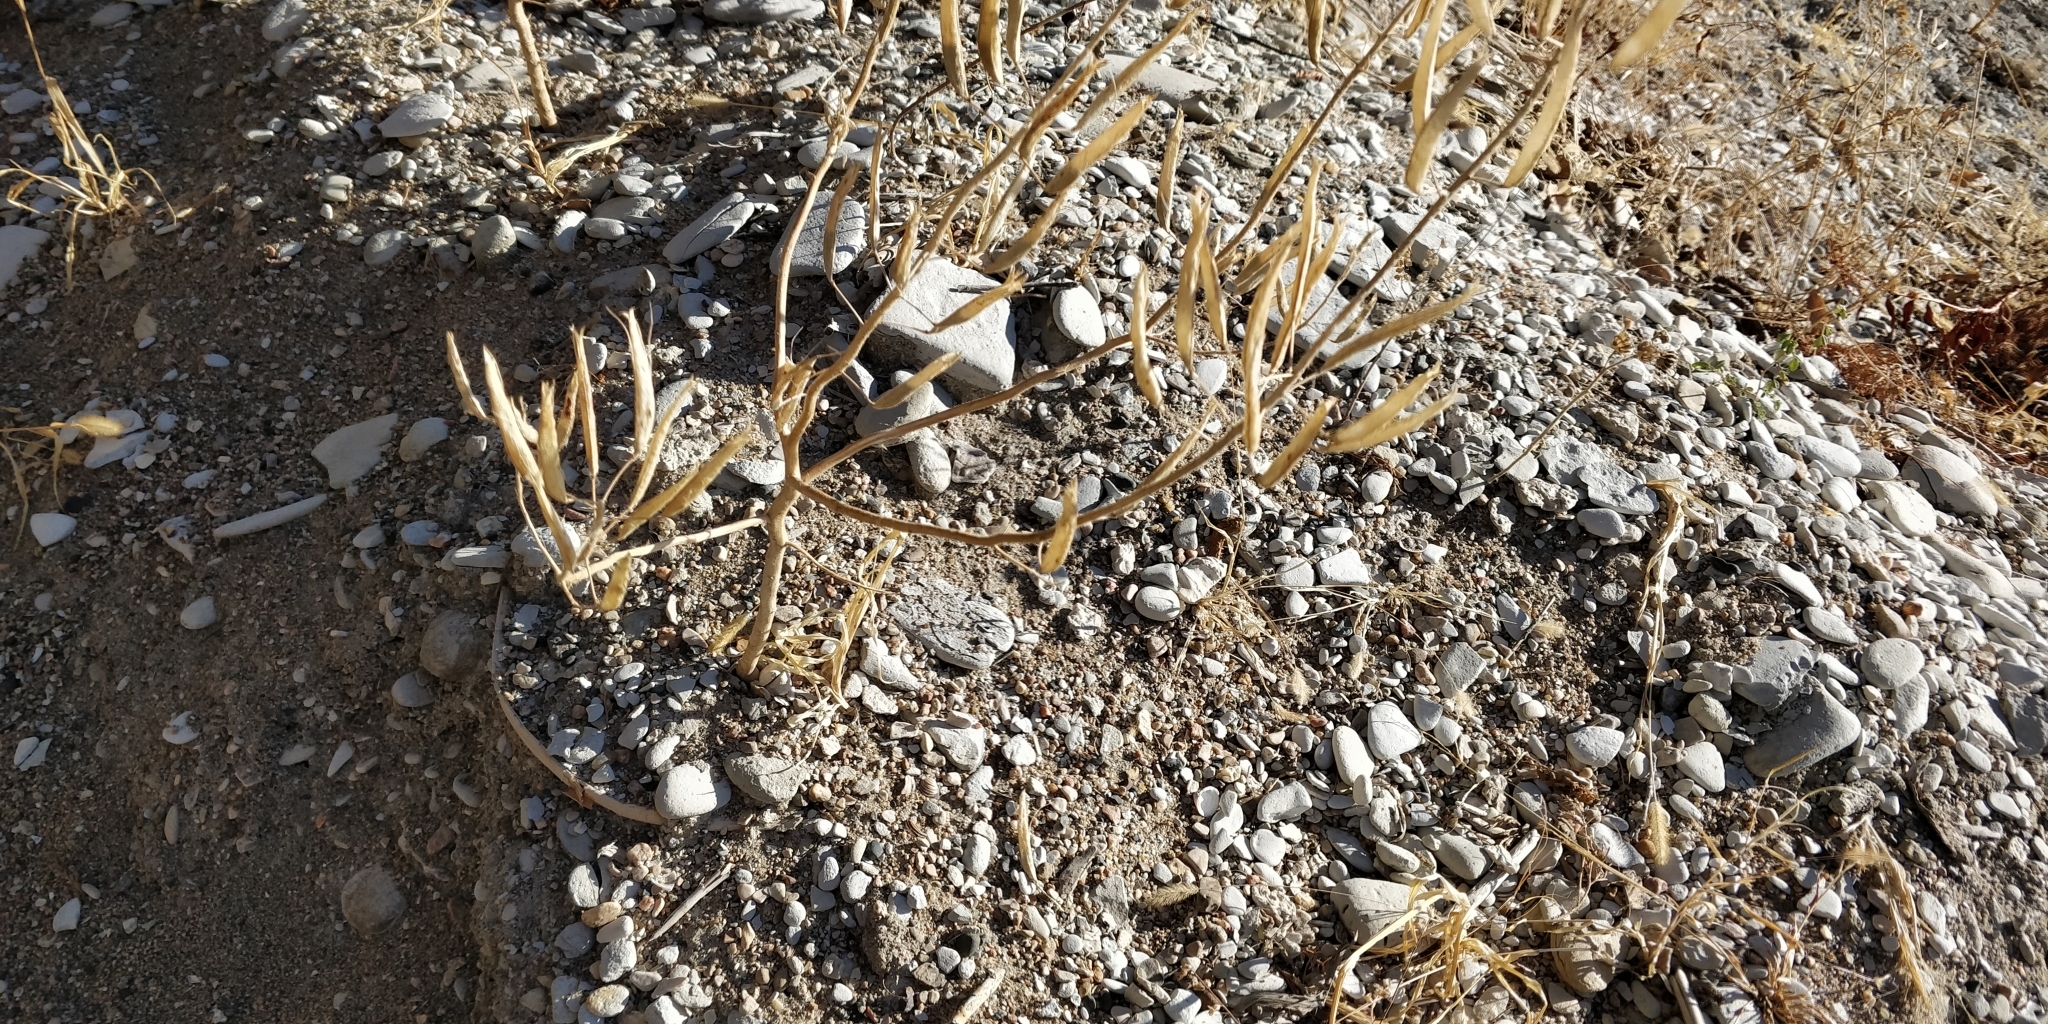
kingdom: Plantae
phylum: Tracheophyta
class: Magnoliopsida
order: Brassicales
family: Cleomaceae
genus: Polanisia
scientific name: Polanisia dodecandra
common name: Clammyweed
